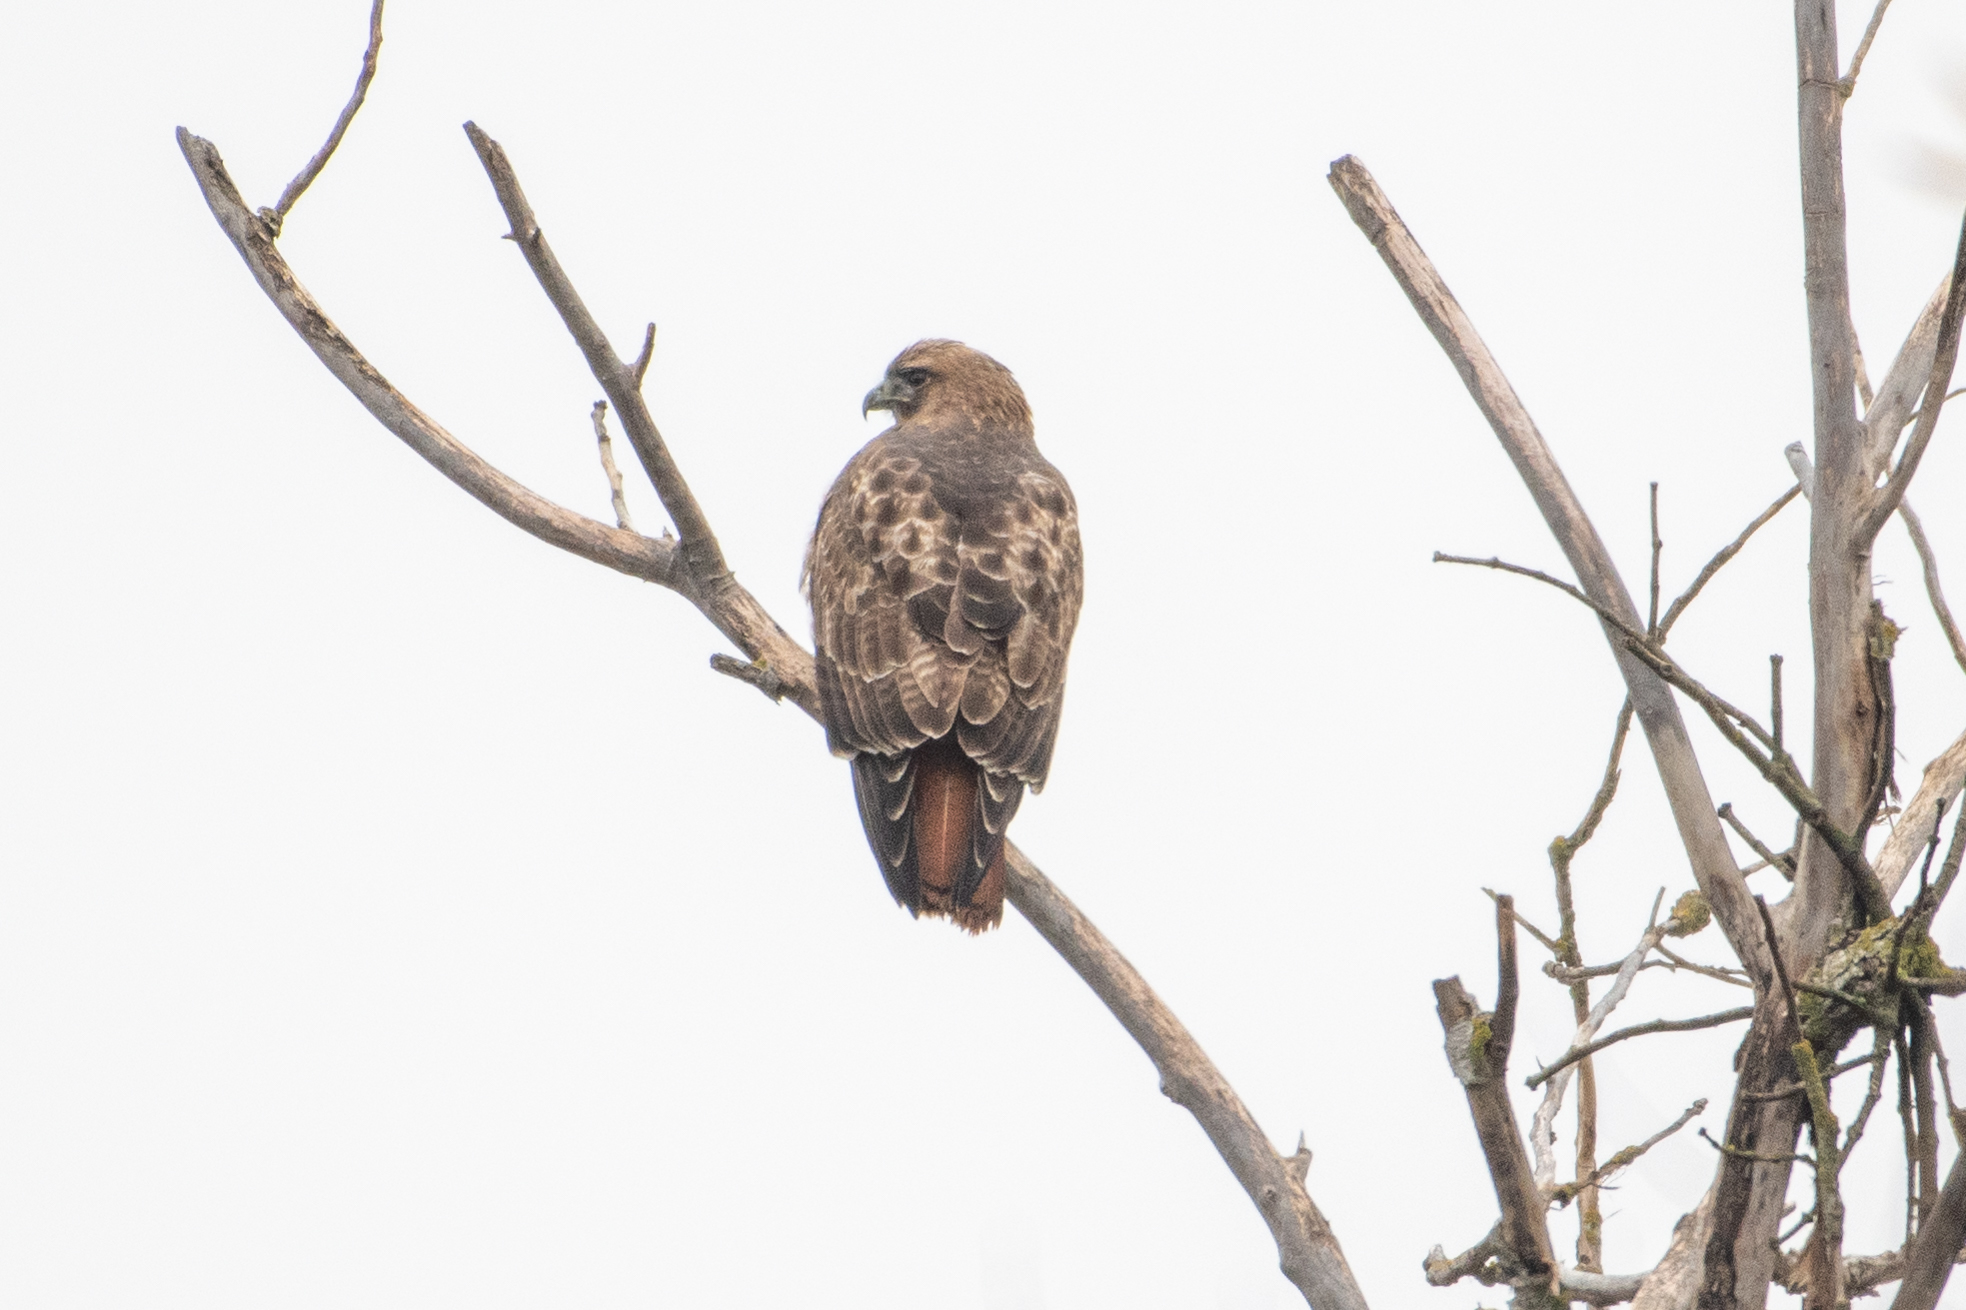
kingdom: Animalia
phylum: Chordata
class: Aves
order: Accipitriformes
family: Accipitridae
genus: Buteo
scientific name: Buteo jamaicensis
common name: Red-tailed hawk
